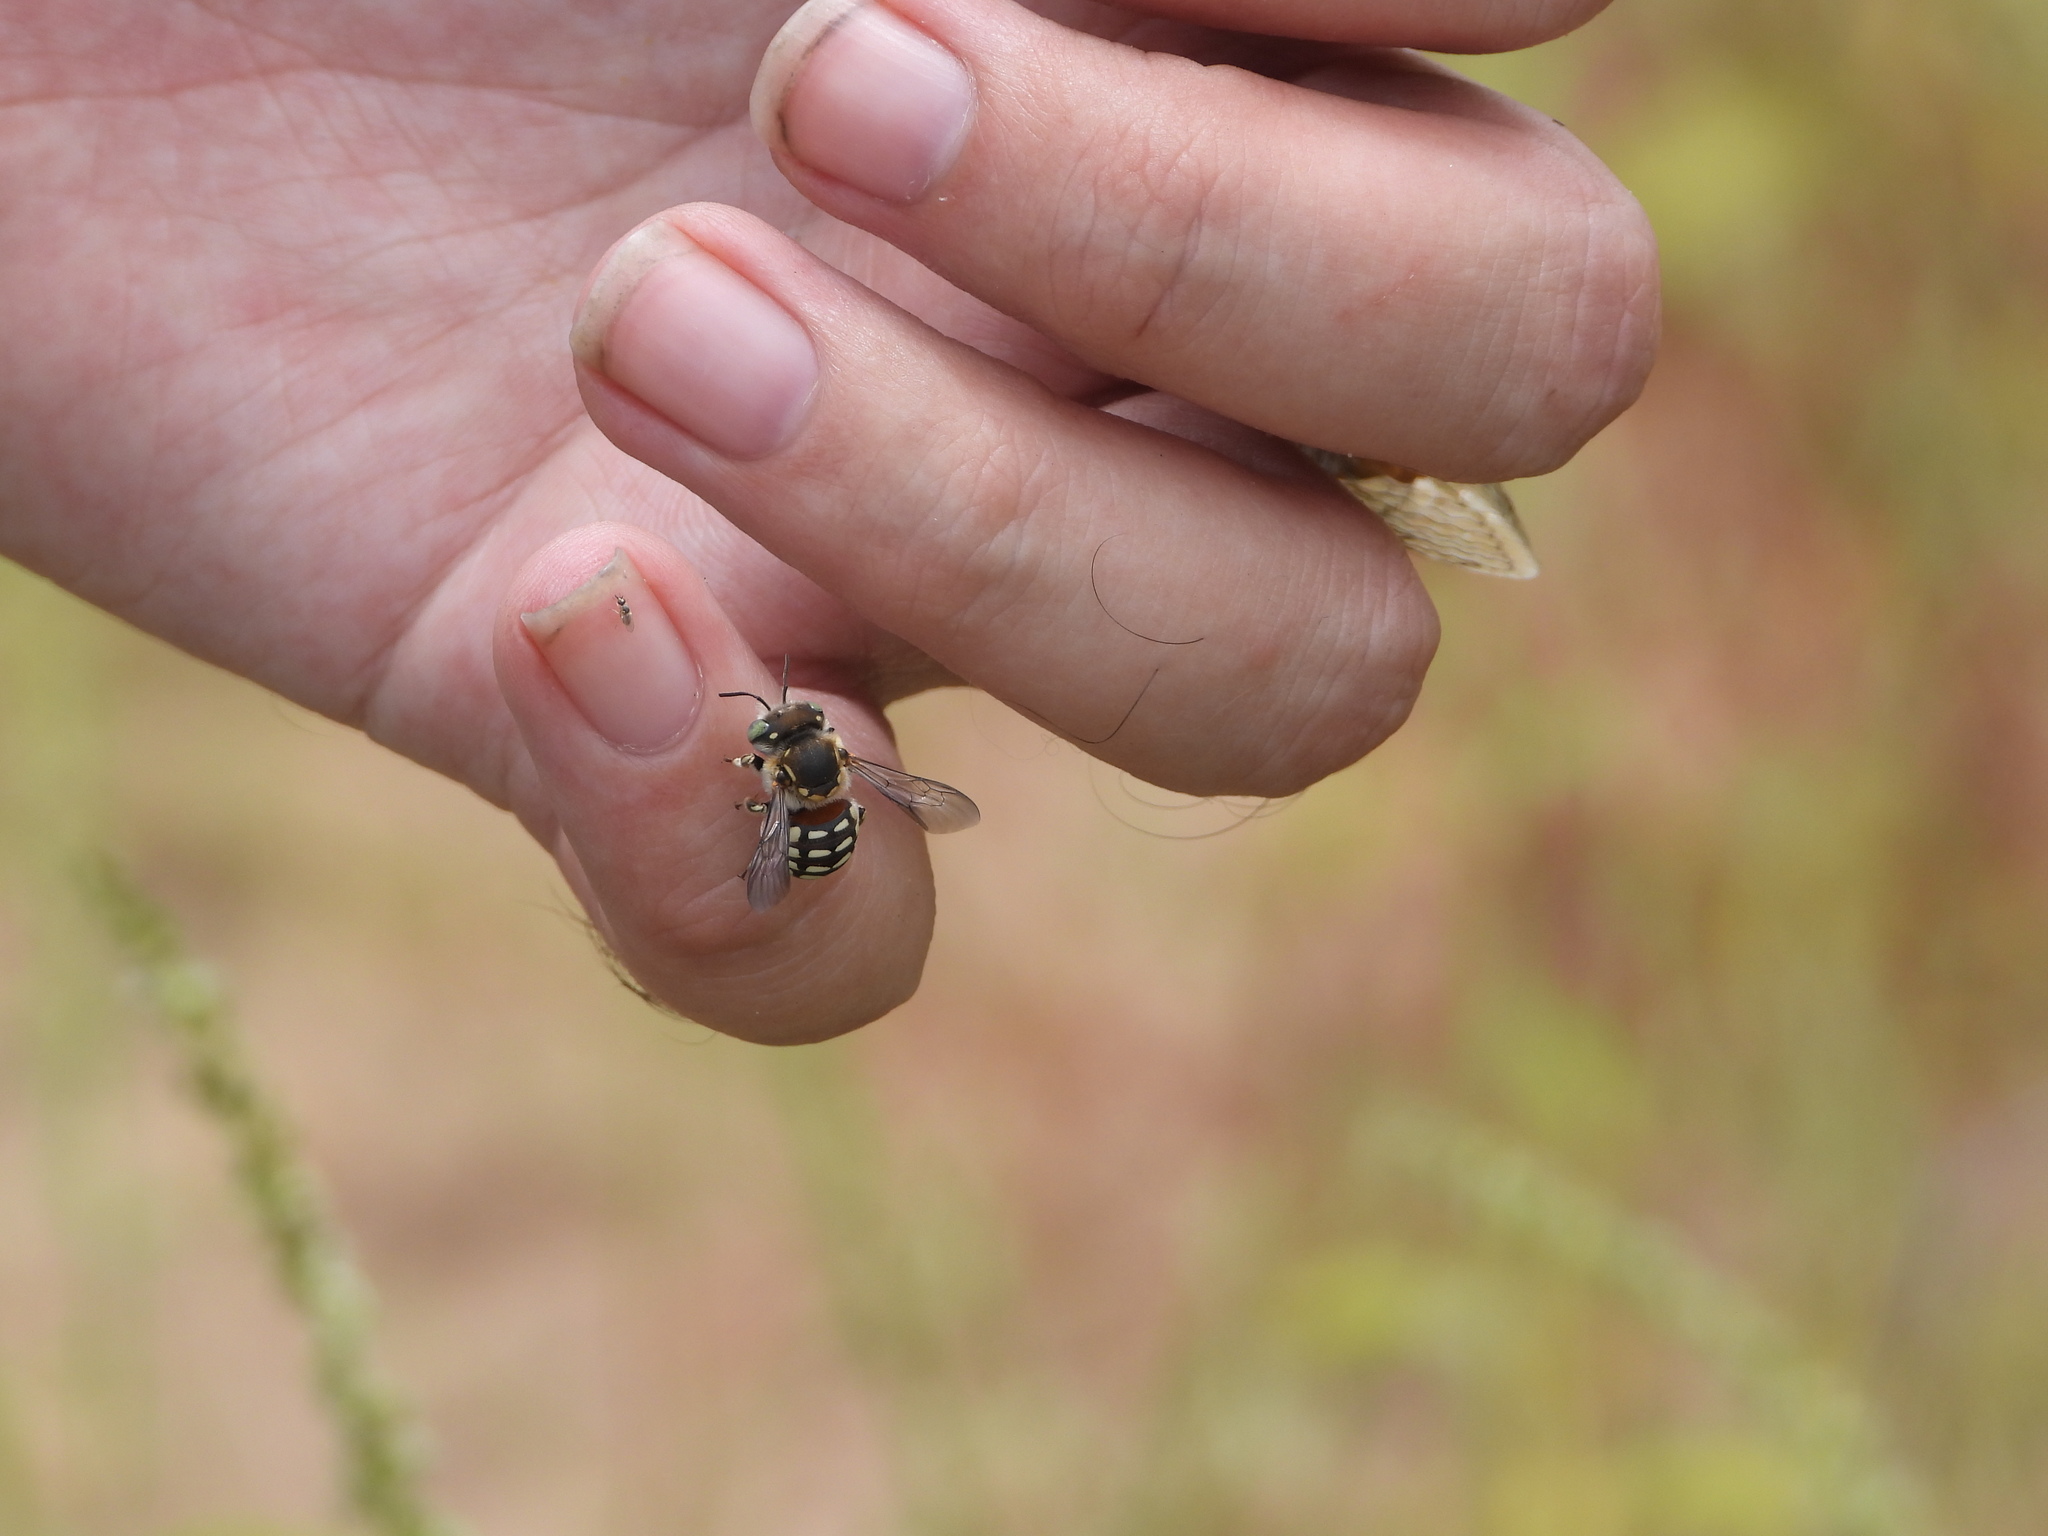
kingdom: Animalia
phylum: Arthropoda
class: Insecta
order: Hymenoptera
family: Megachilidae
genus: Anthidium
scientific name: Anthidium porterae
